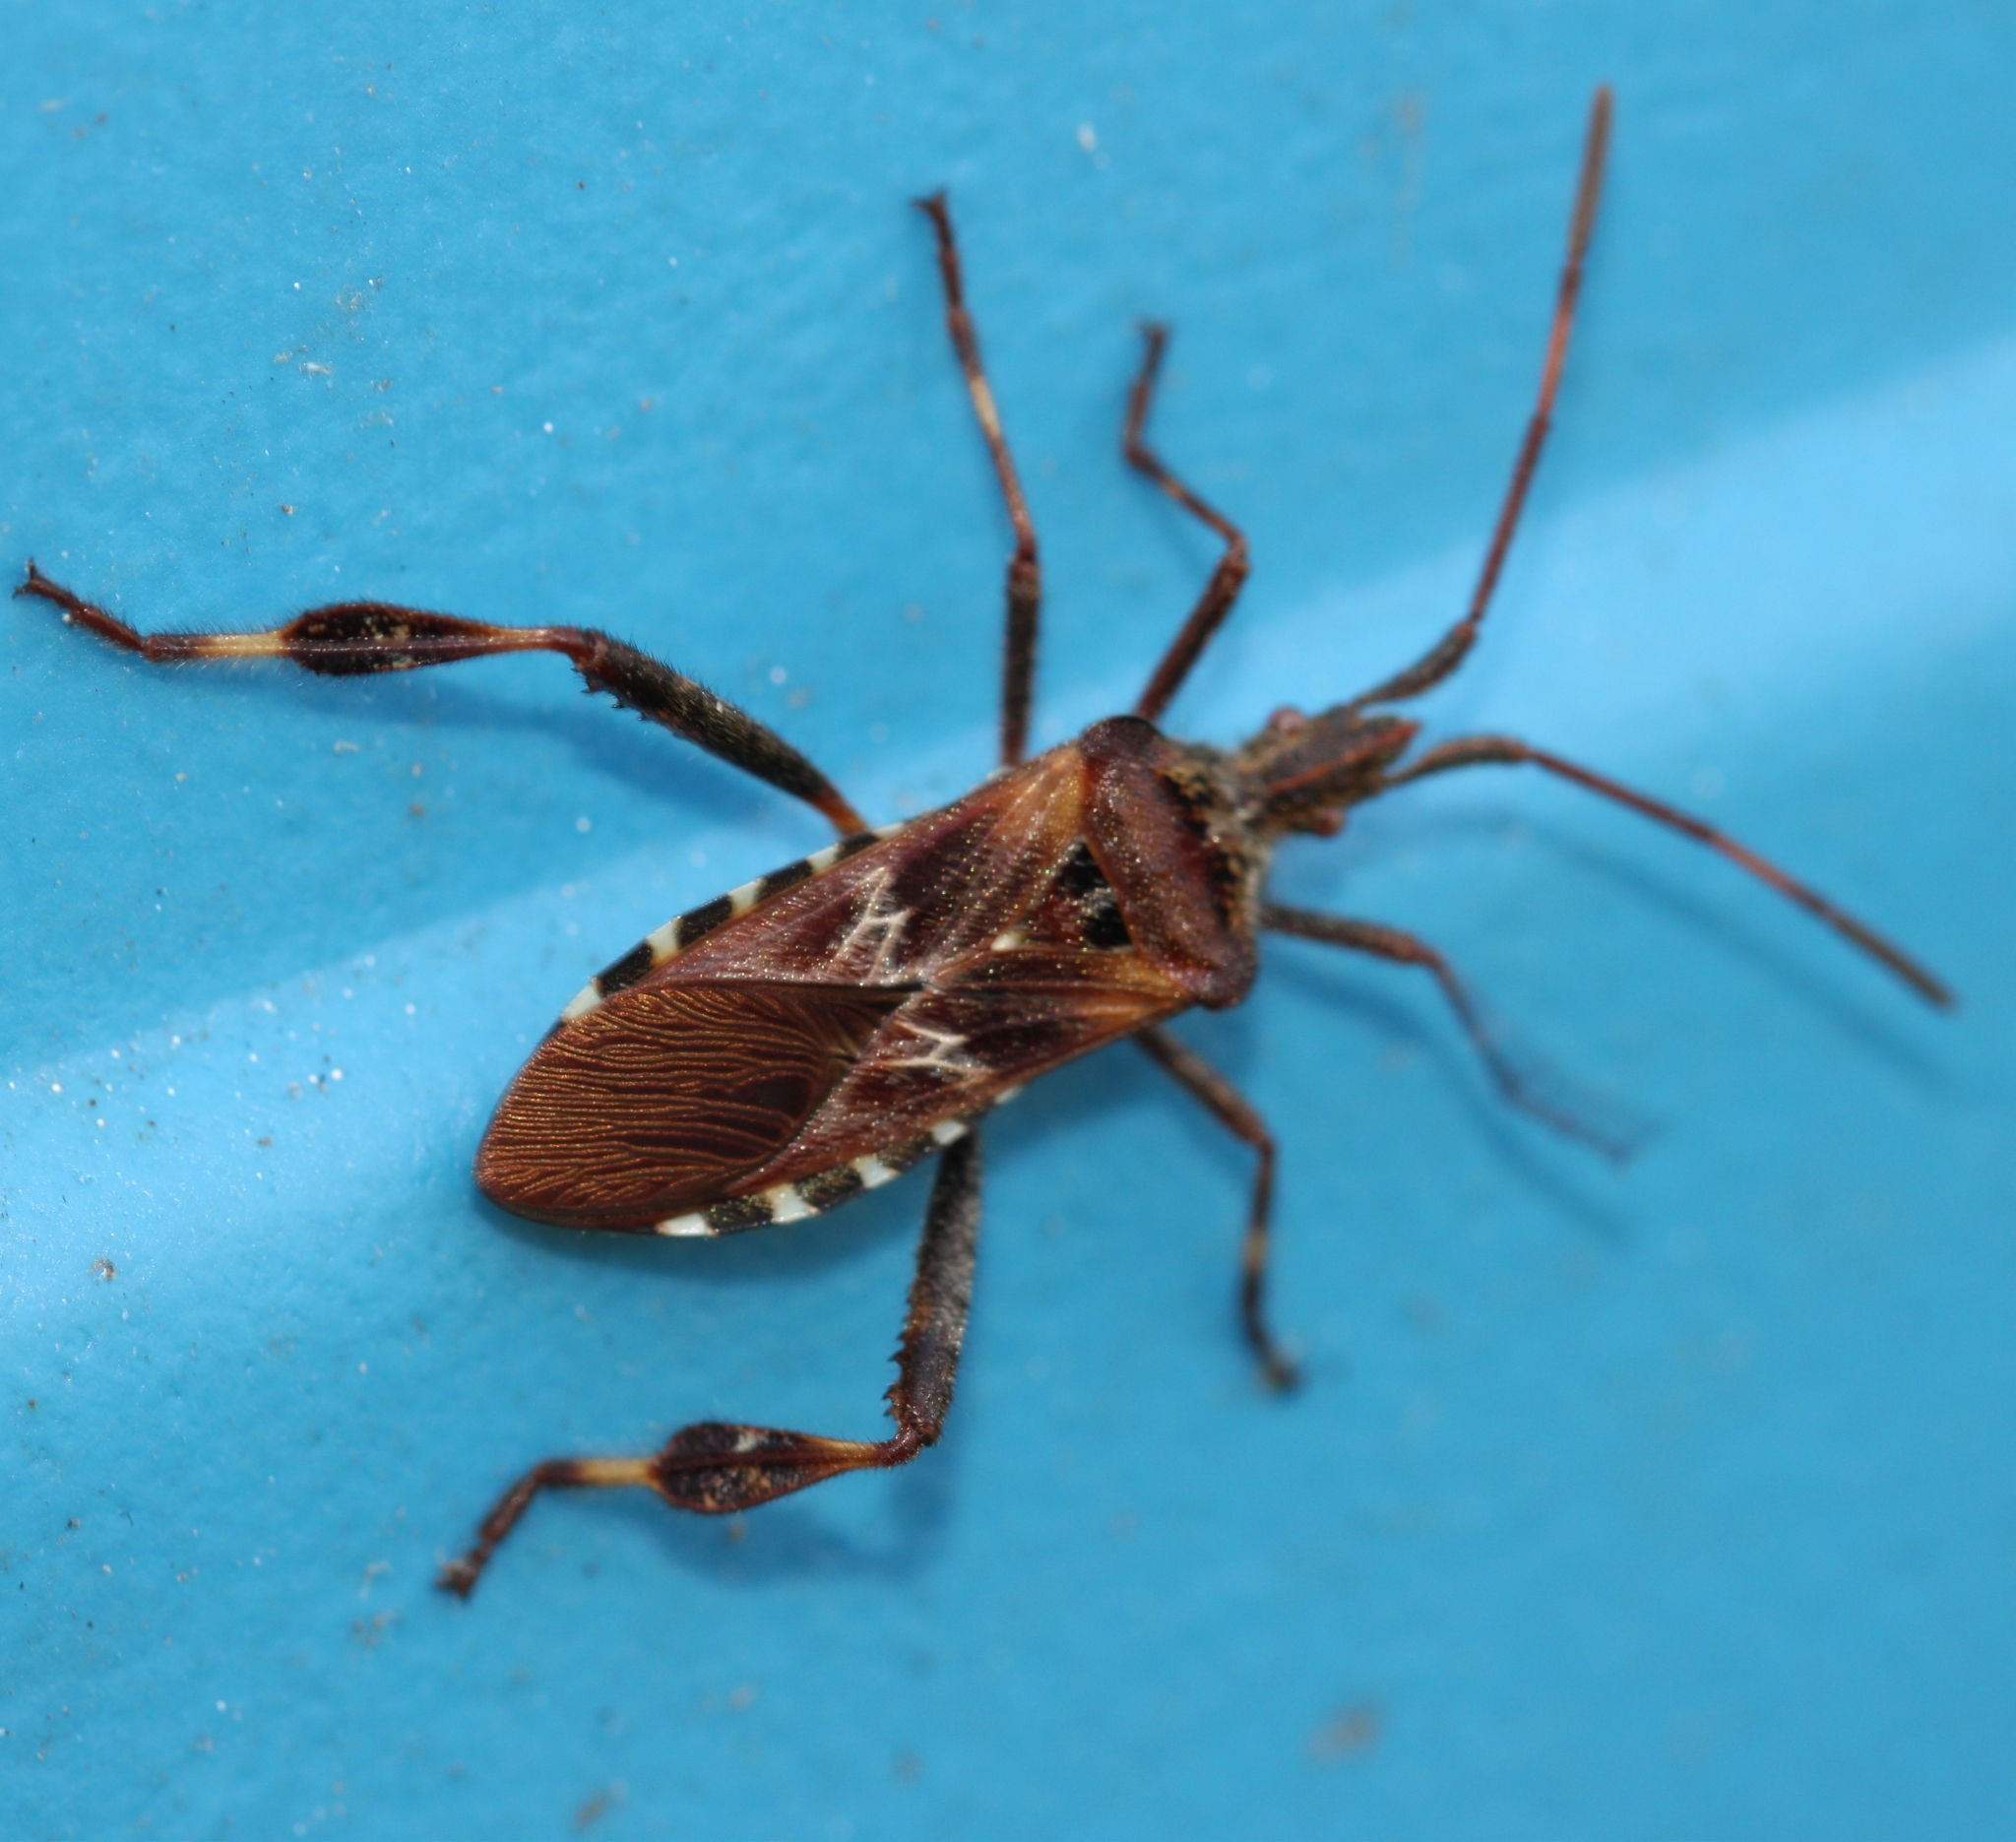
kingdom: Animalia
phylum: Arthropoda
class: Insecta
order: Hemiptera
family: Coreidae
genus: Leptoglossus
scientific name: Leptoglossus occidentalis
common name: Western conifer-seed bug
